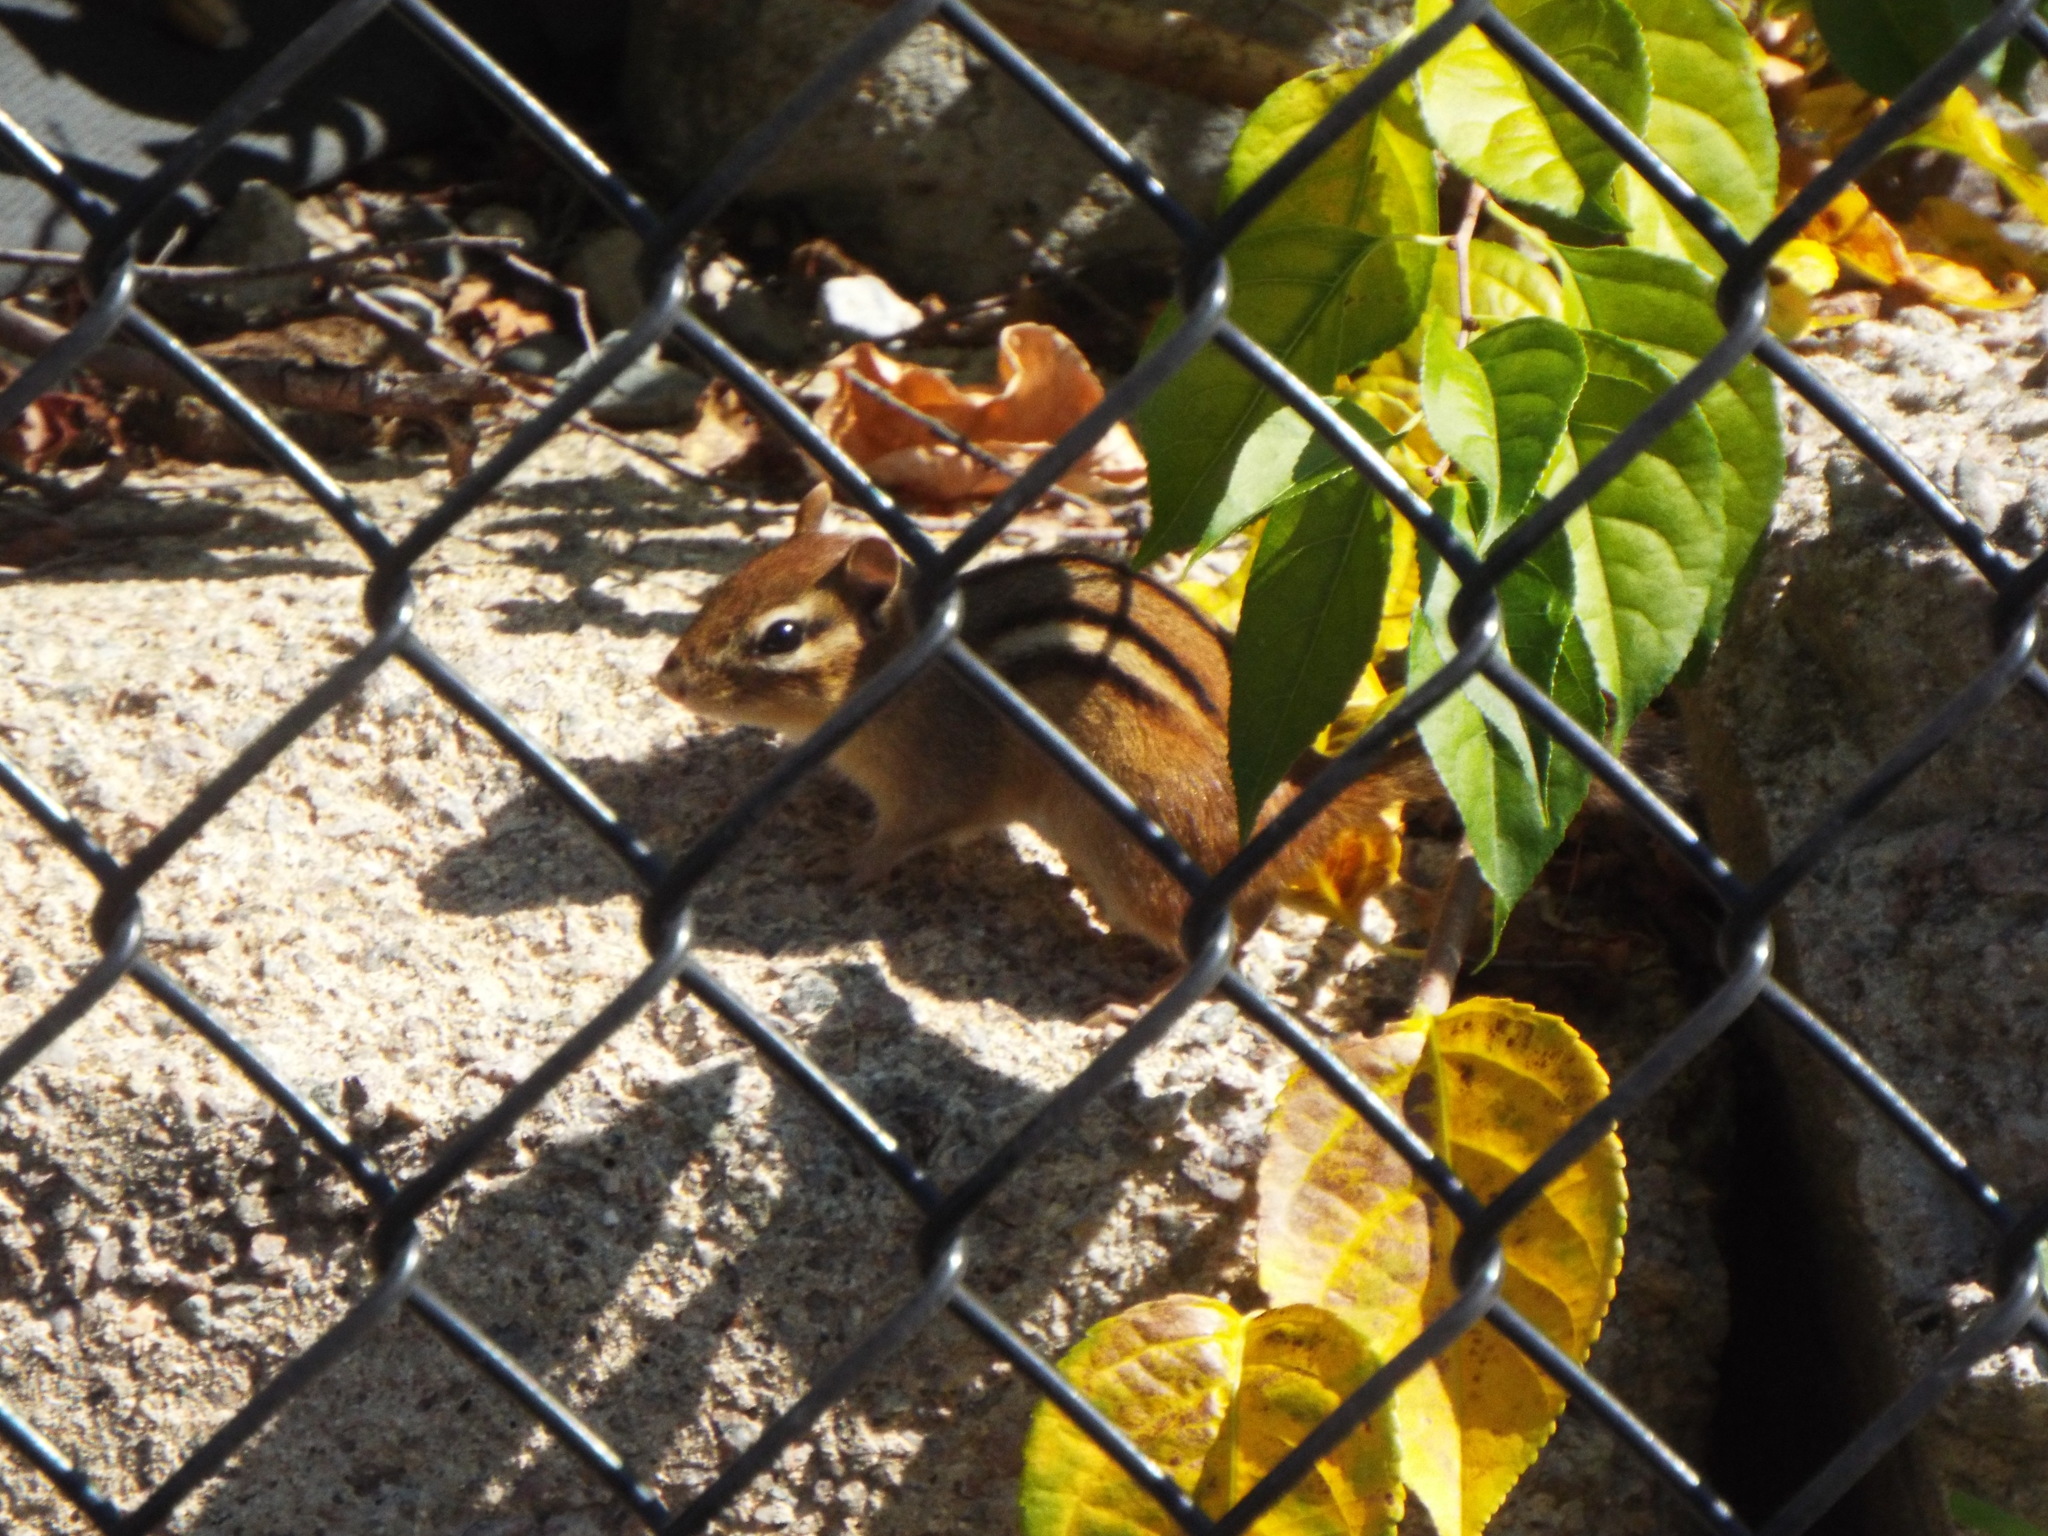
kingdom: Animalia
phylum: Chordata
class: Mammalia
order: Rodentia
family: Sciuridae
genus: Tamias
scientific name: Tamias striatus
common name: Eastern chipmunk
